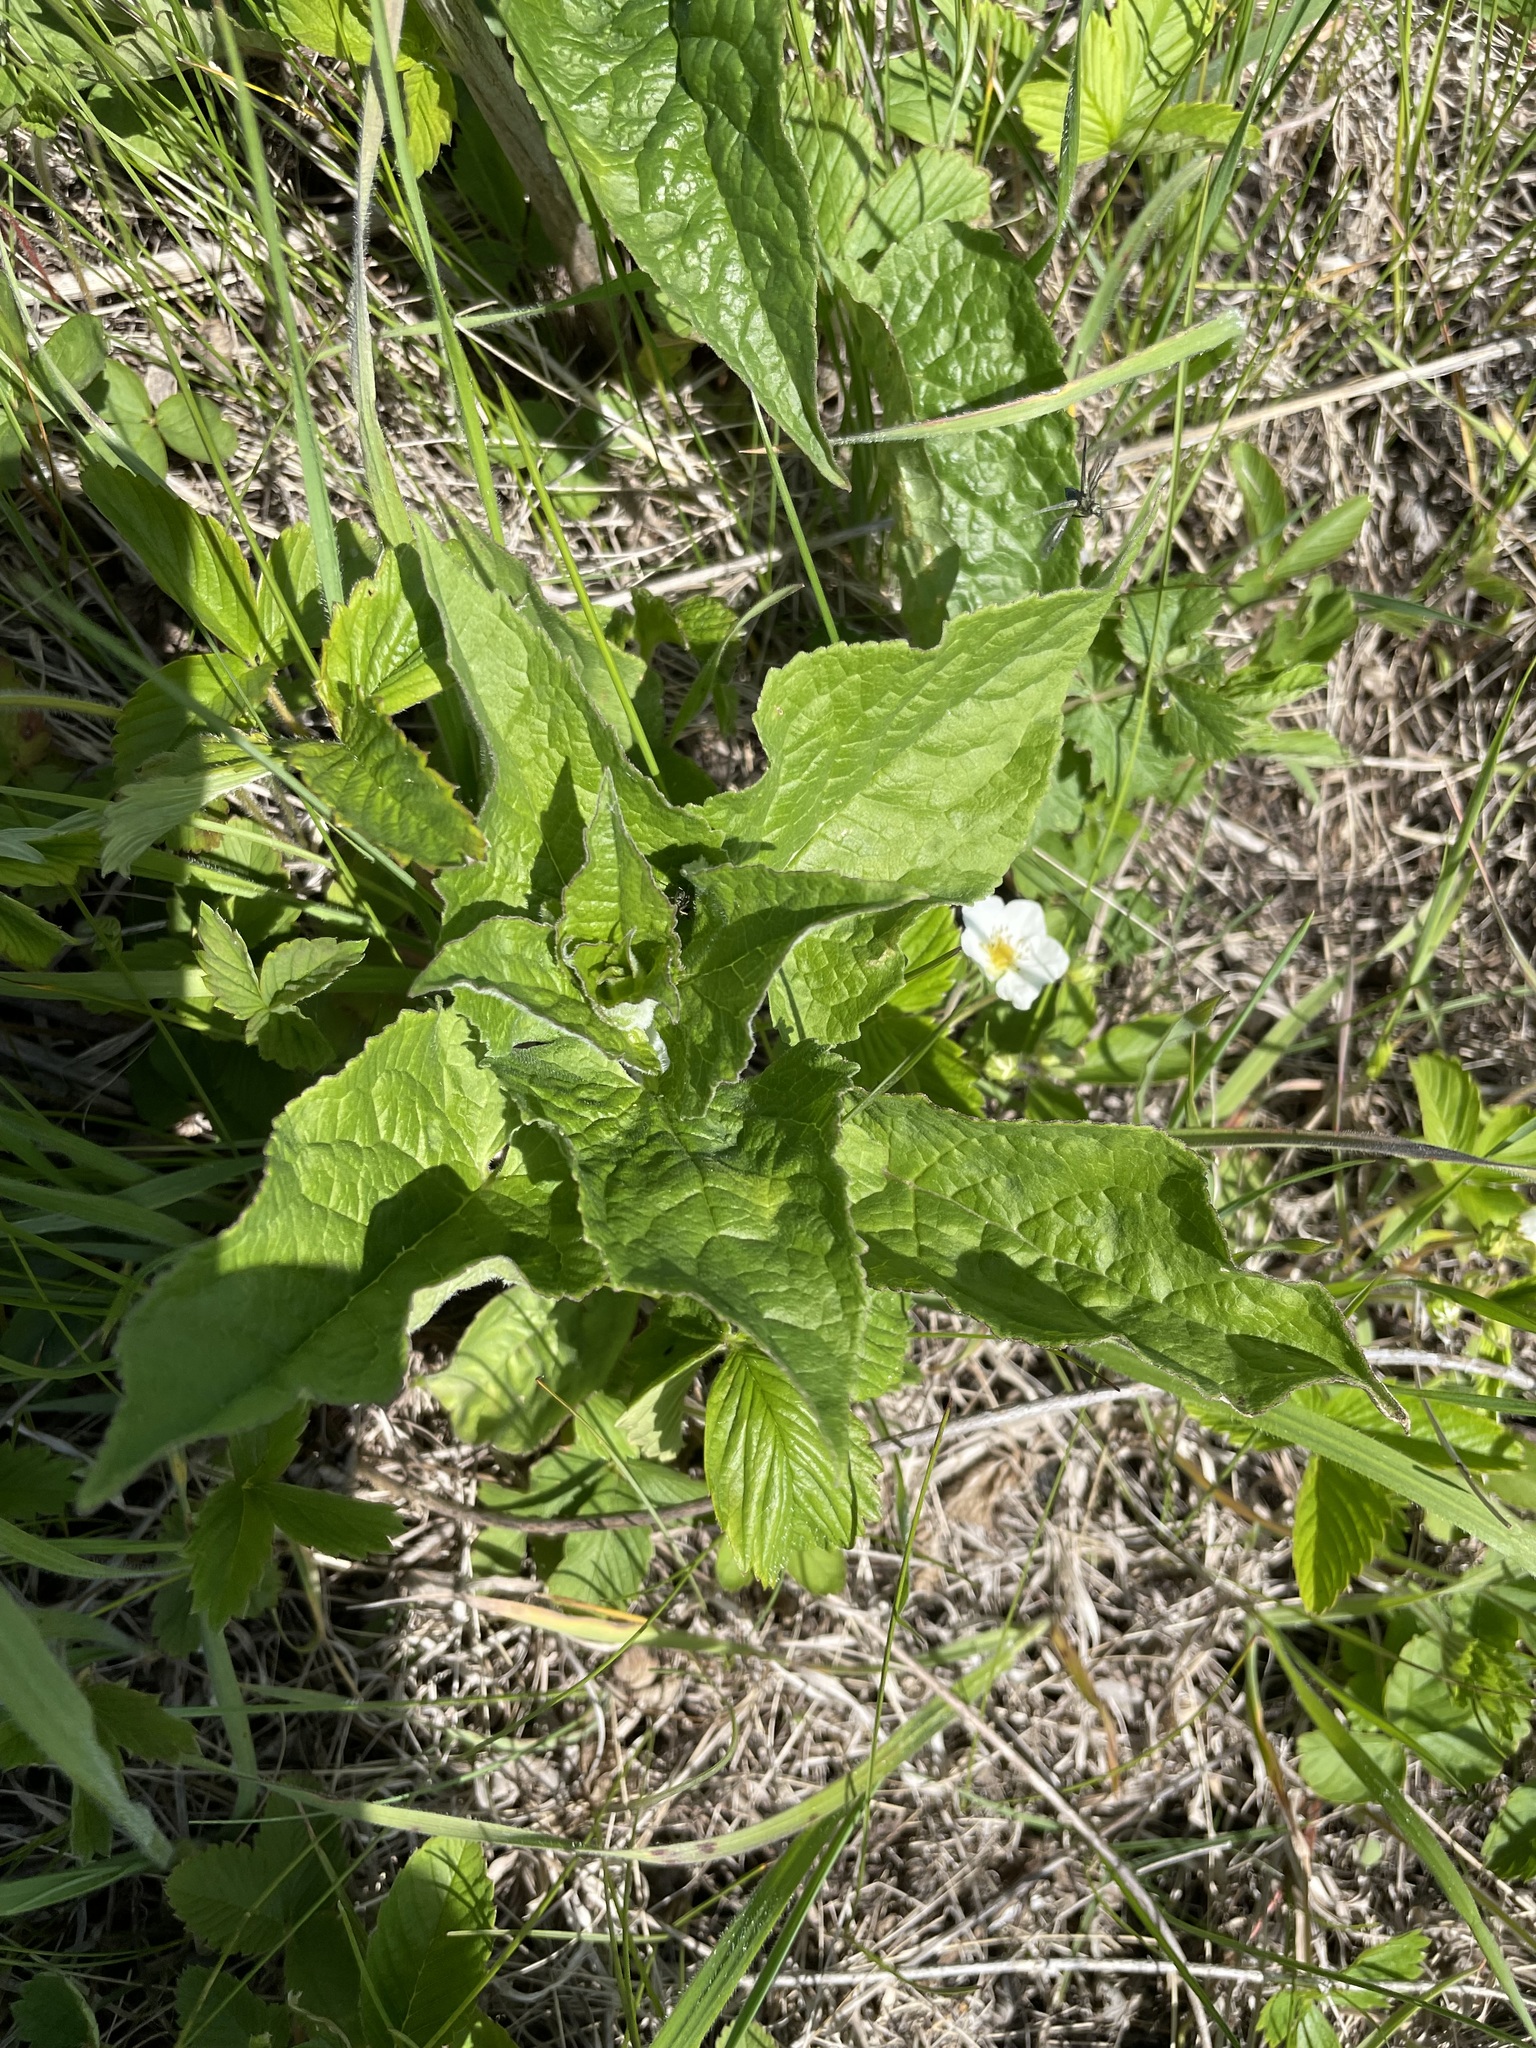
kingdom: Plantae
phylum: Tracheophyta
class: Magnoliopsida
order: Rosales
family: Rosaceae
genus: Fragaria
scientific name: Fragaria viridis
